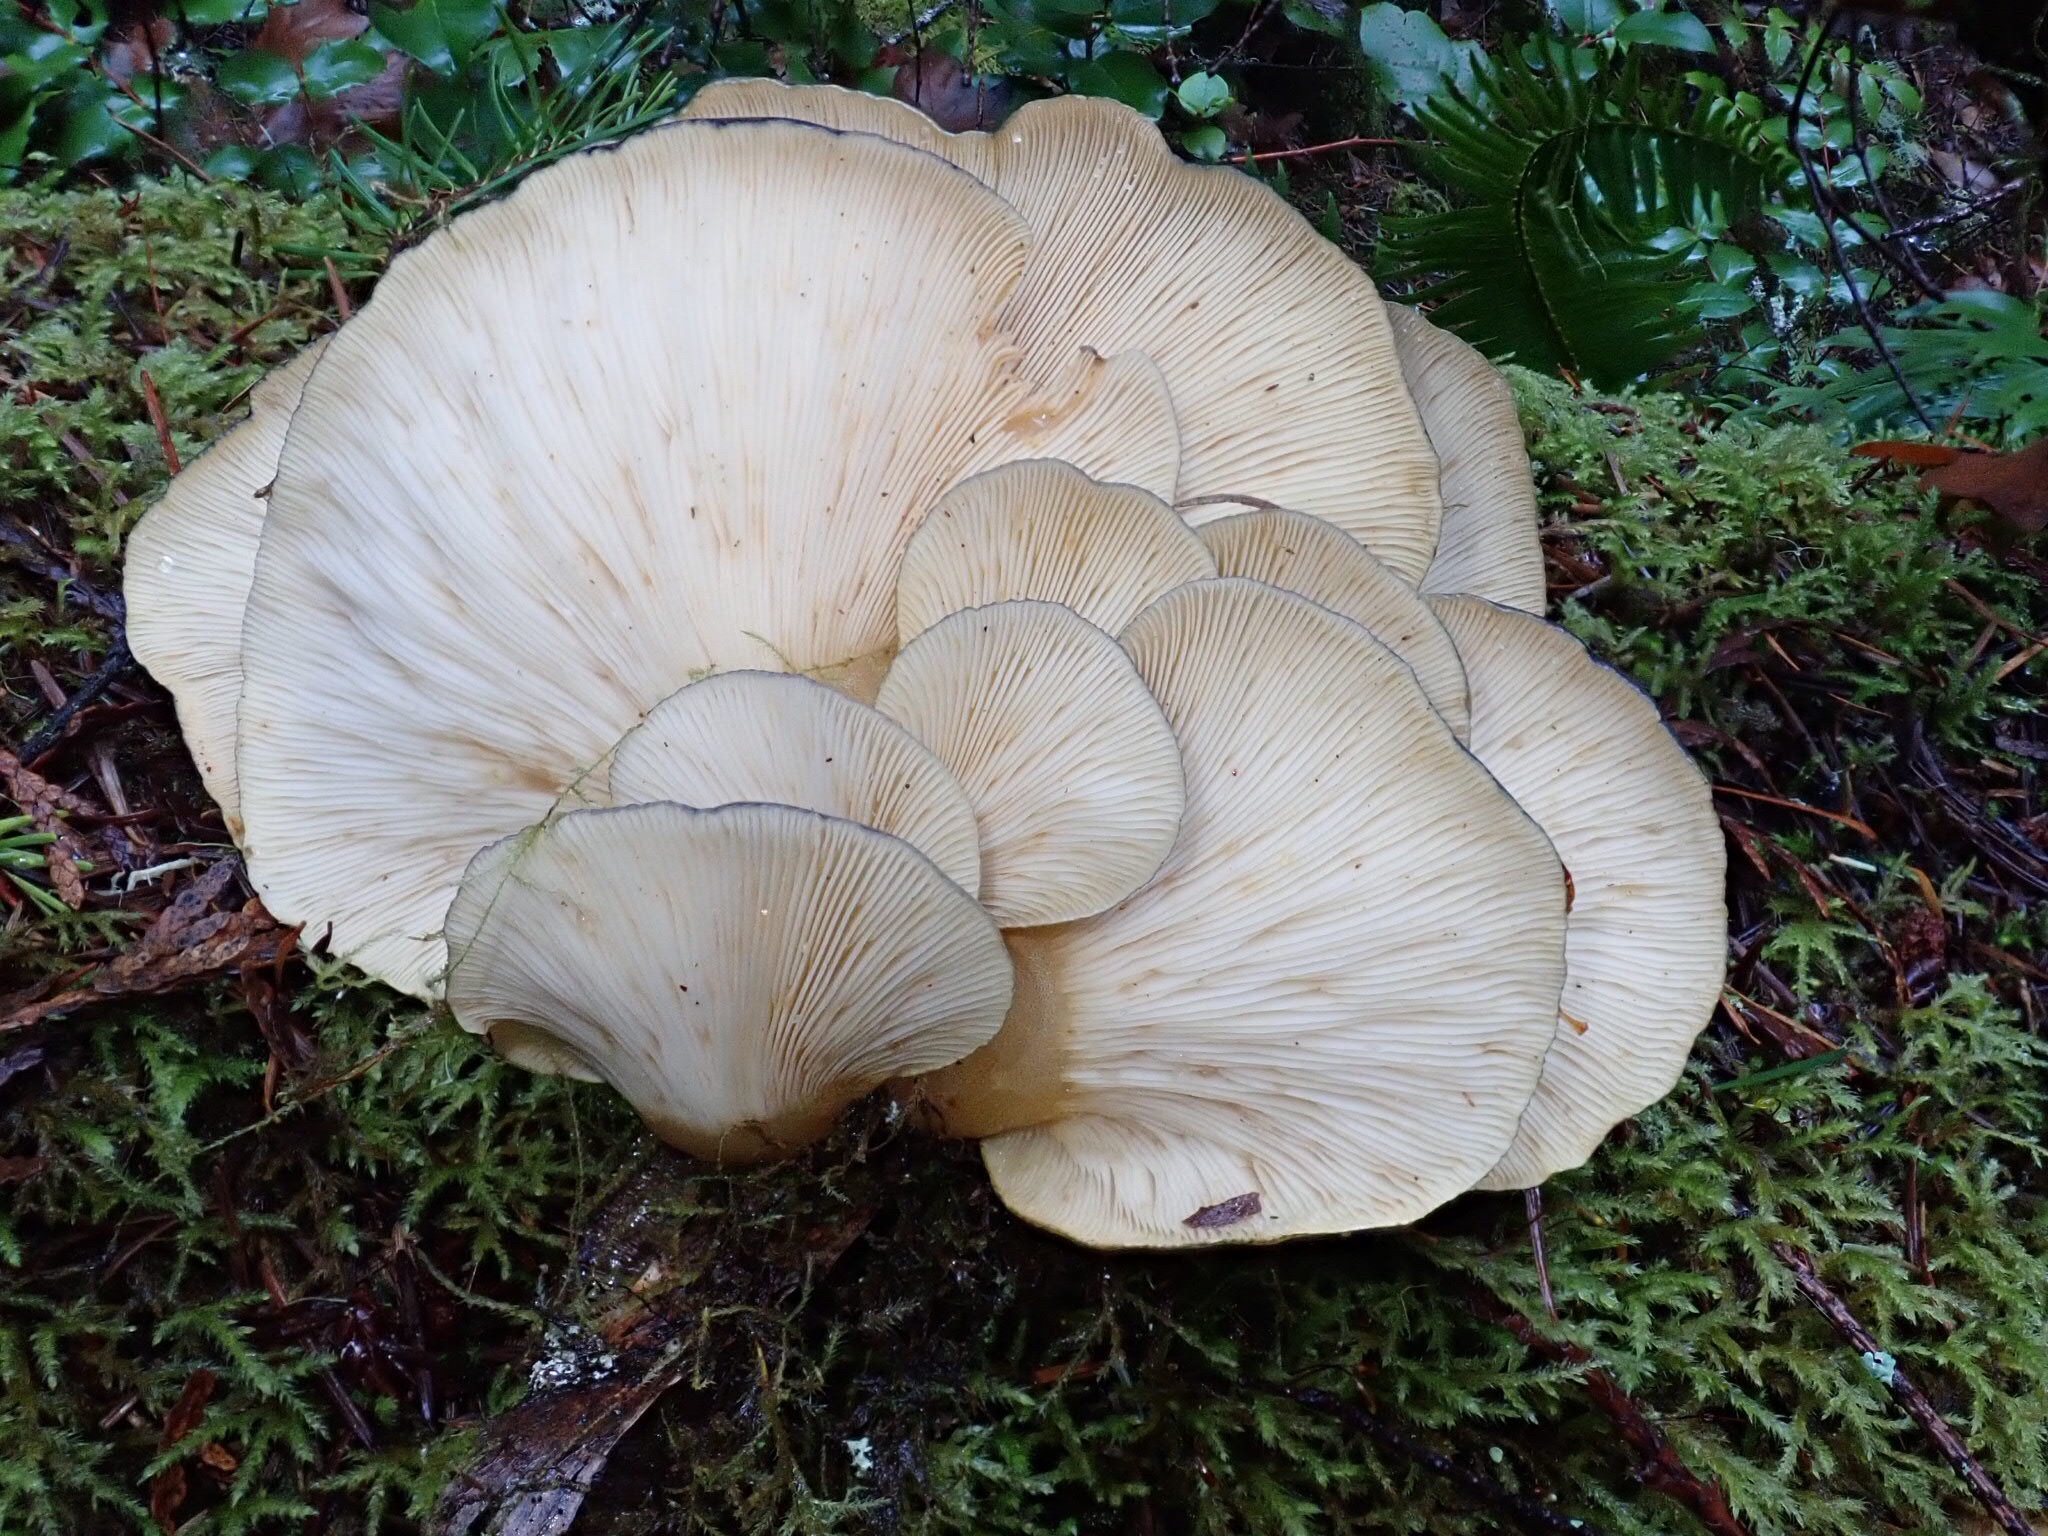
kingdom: Fungi
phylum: Basidiomycota
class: Agaricomycetes
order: Agaricales
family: Sarcomyxaceae
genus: Sarcomyxa
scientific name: Sarcomyxa serotina
